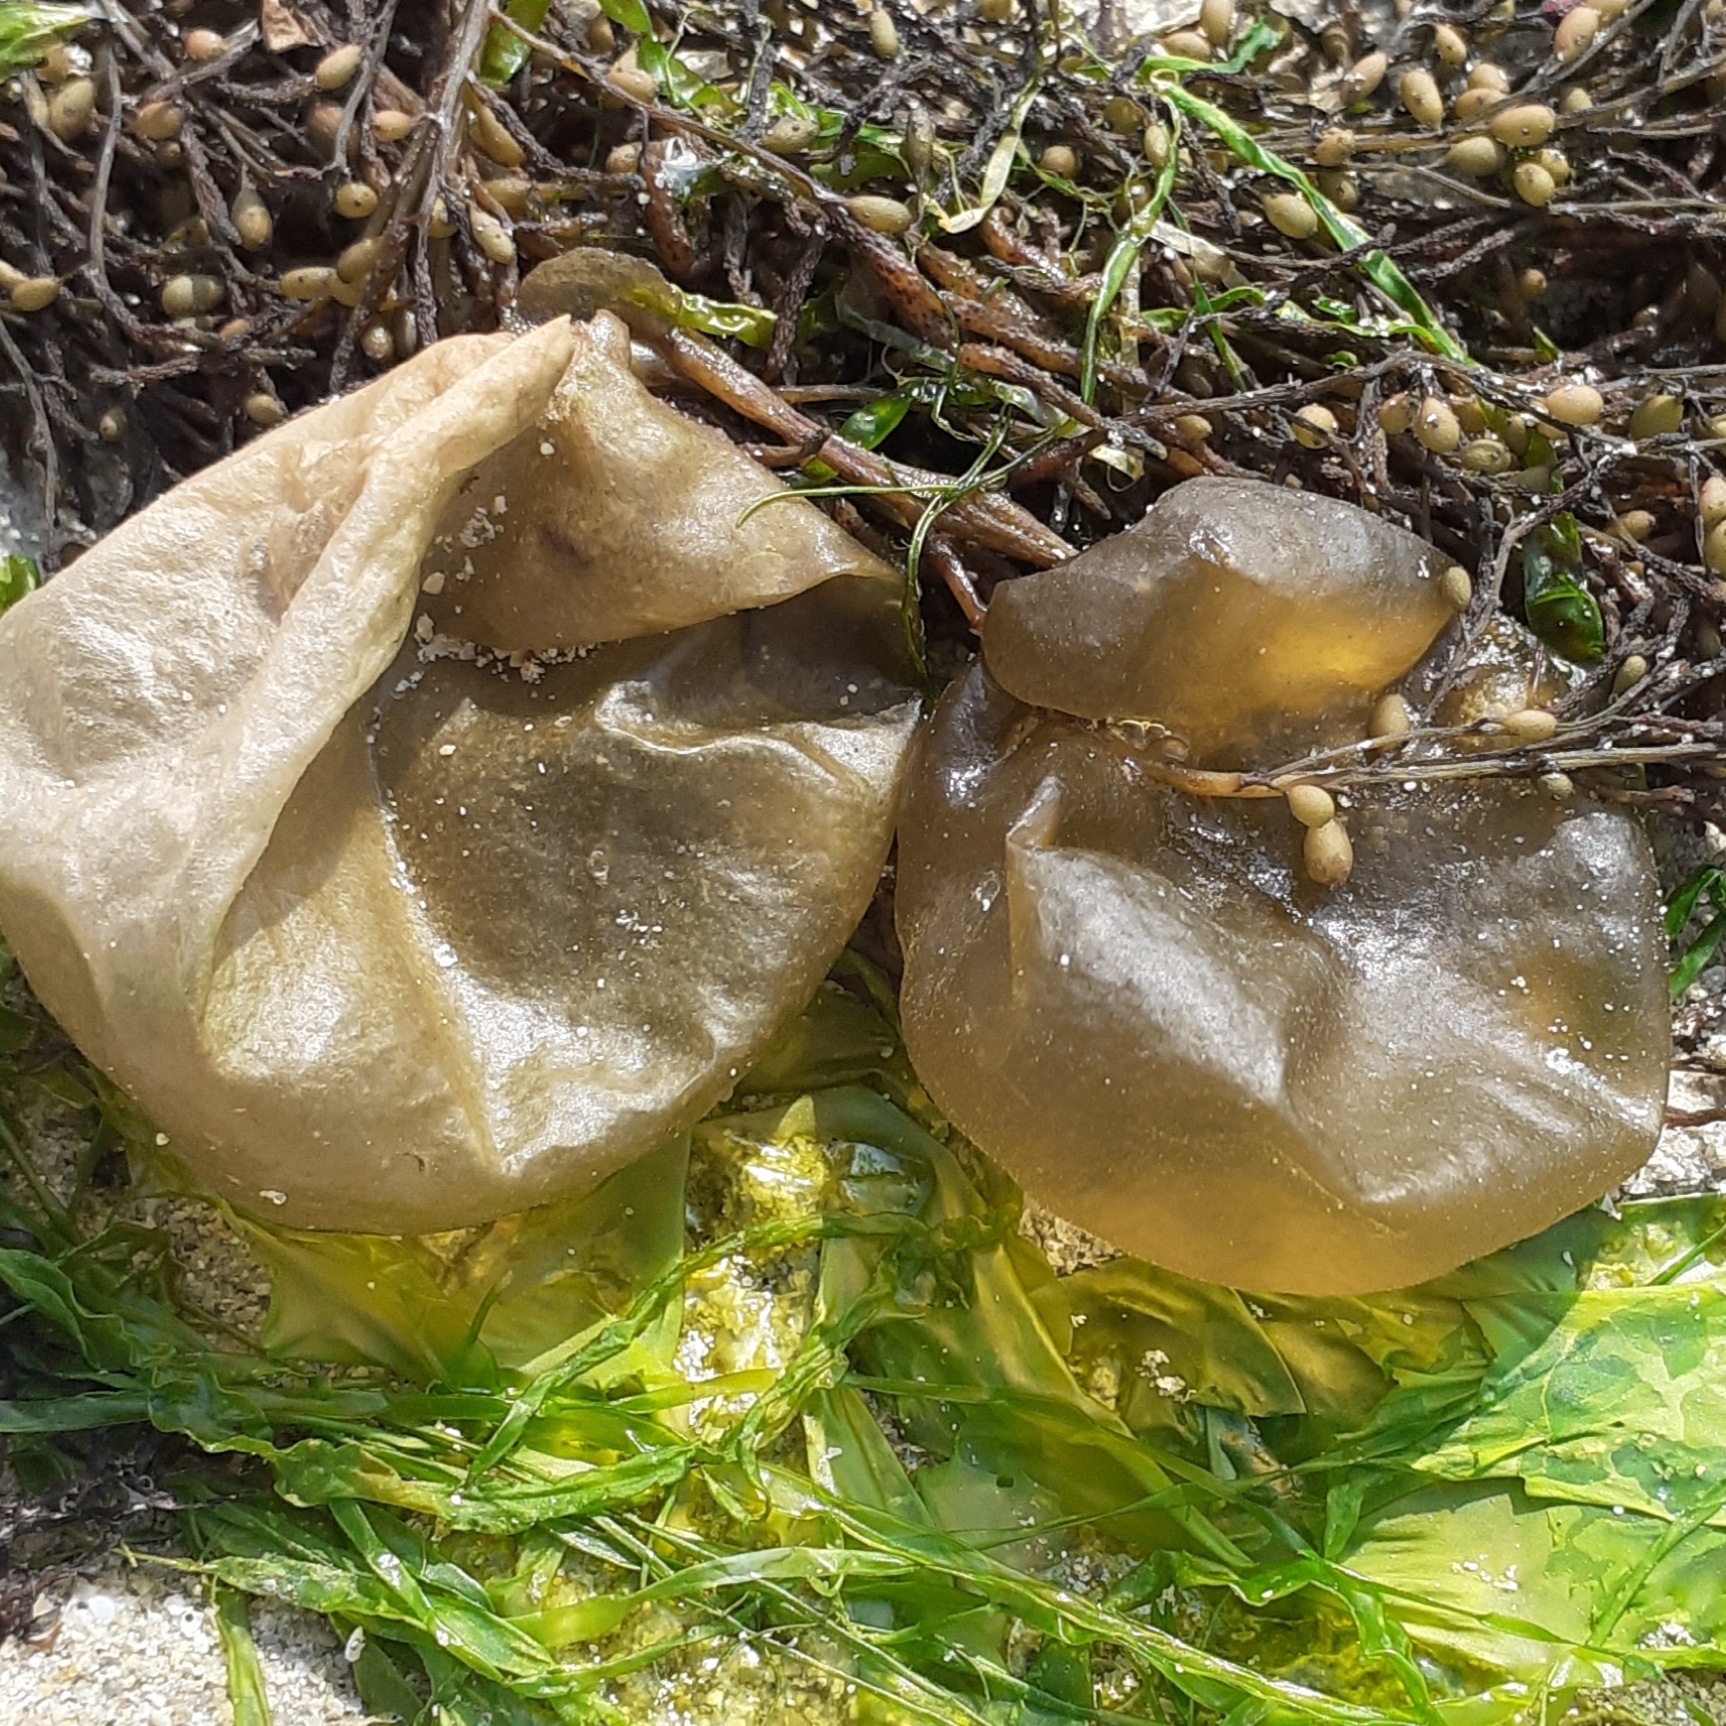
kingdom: Chromista
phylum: Ochrophyta
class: Phaeophyceae
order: Scytosiphonales
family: Scytosiphonaceae
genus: Colpomenia
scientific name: Colpomenia peregrina
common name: Oyster thief
